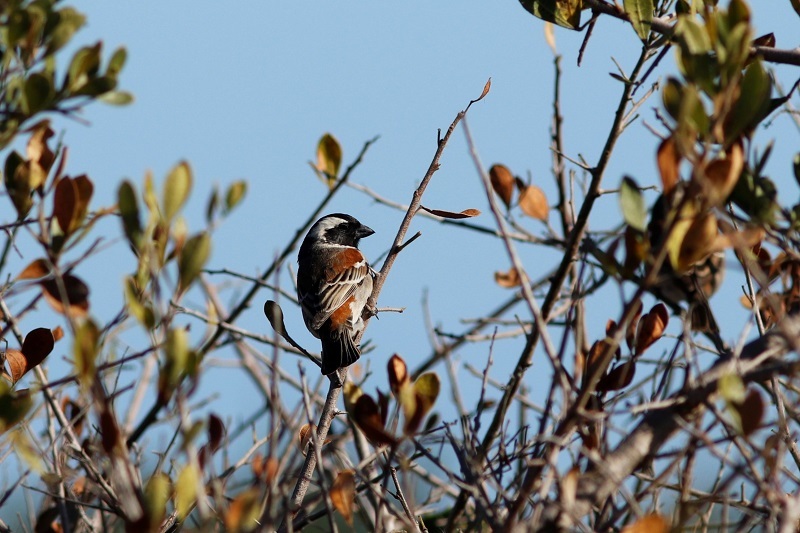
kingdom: Animalia
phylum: Chordata
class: Aves
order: Passeriformes
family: Passeridae
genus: Passer
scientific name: Passer melanurus
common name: Cape sparrow
